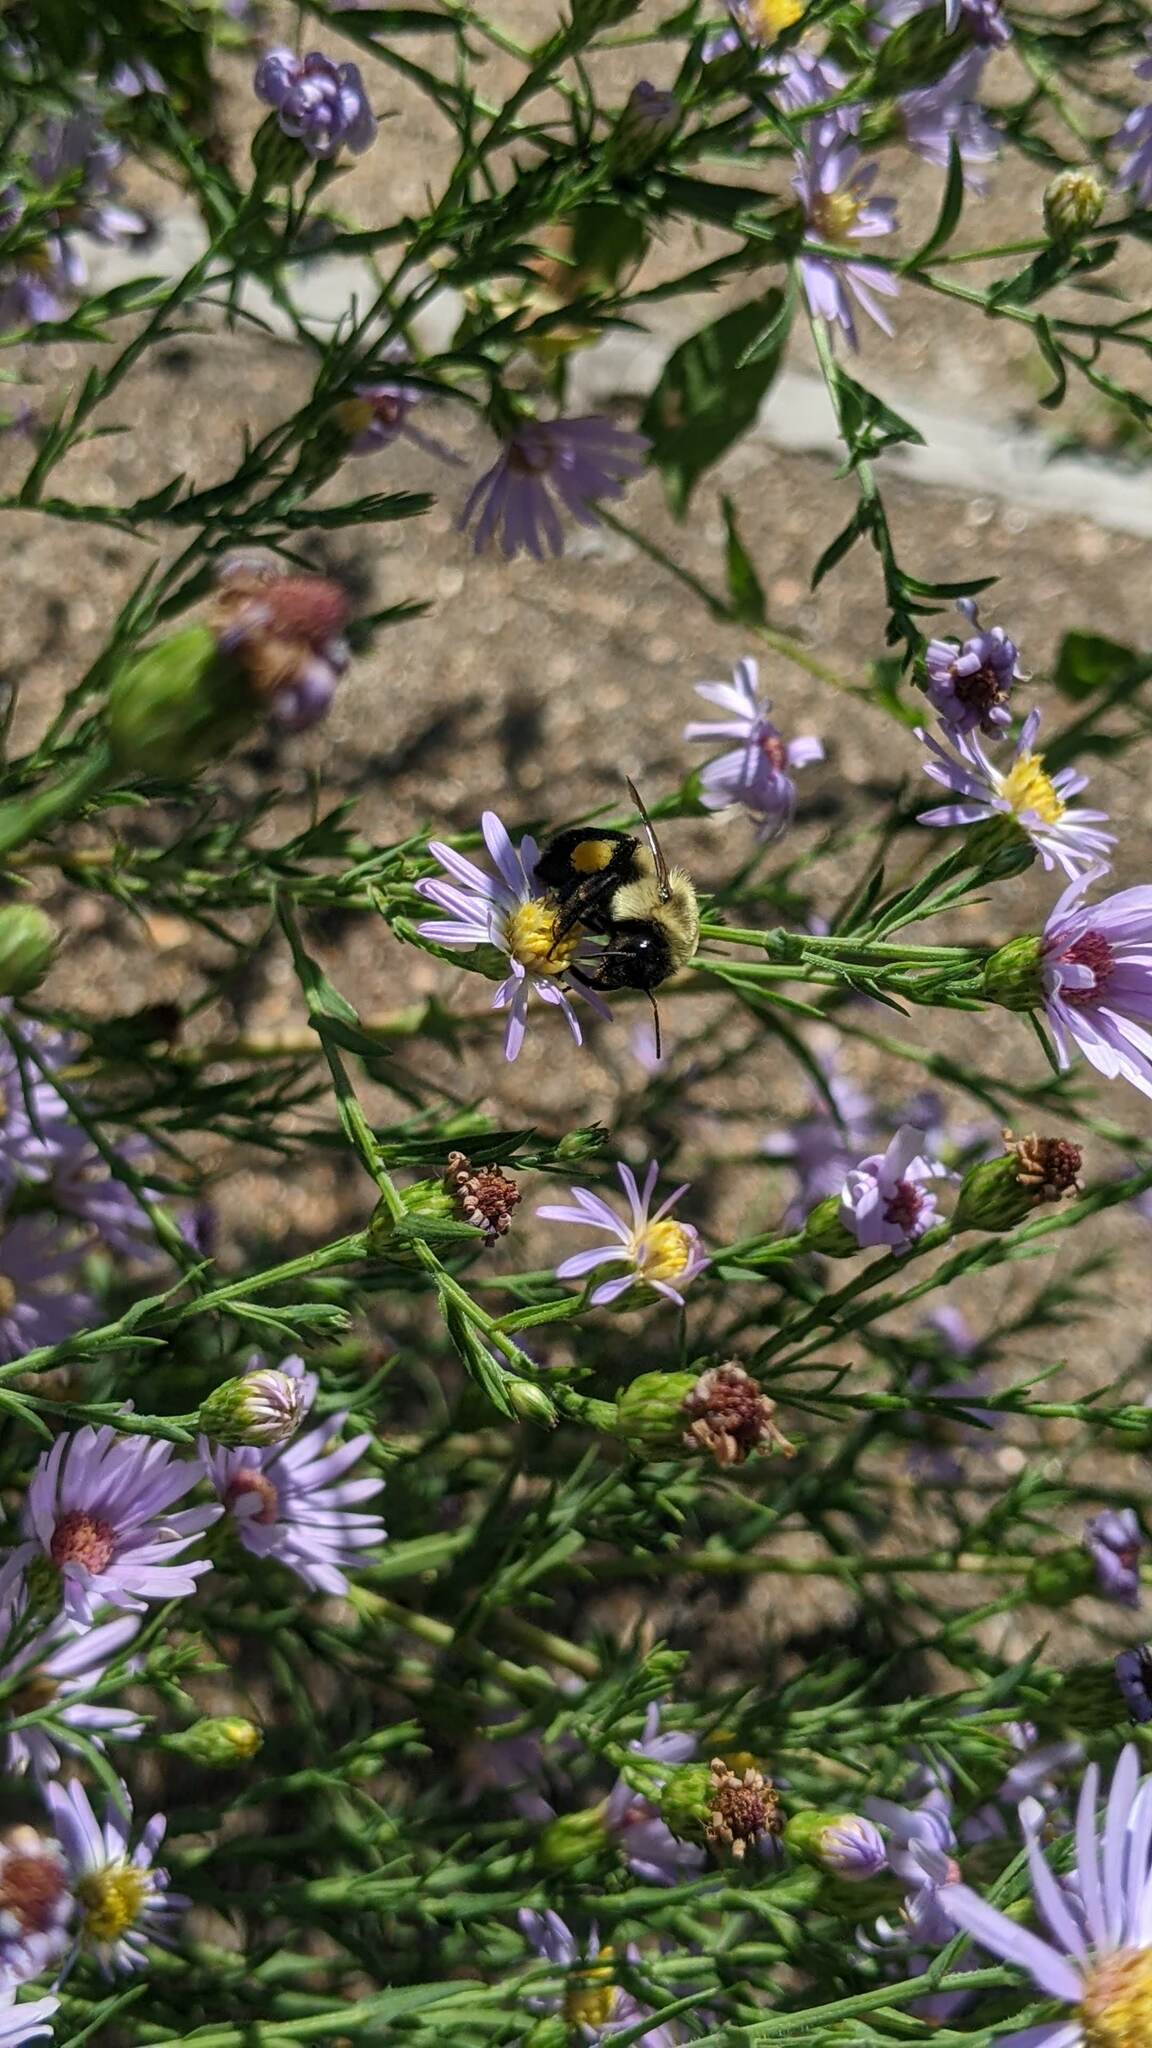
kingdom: Animalia
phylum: Arthropoda
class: Insecta
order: Hymenoptera
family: Apidae
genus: Bombus
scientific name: Bombus impatiens
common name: Common eastern bumble bee
